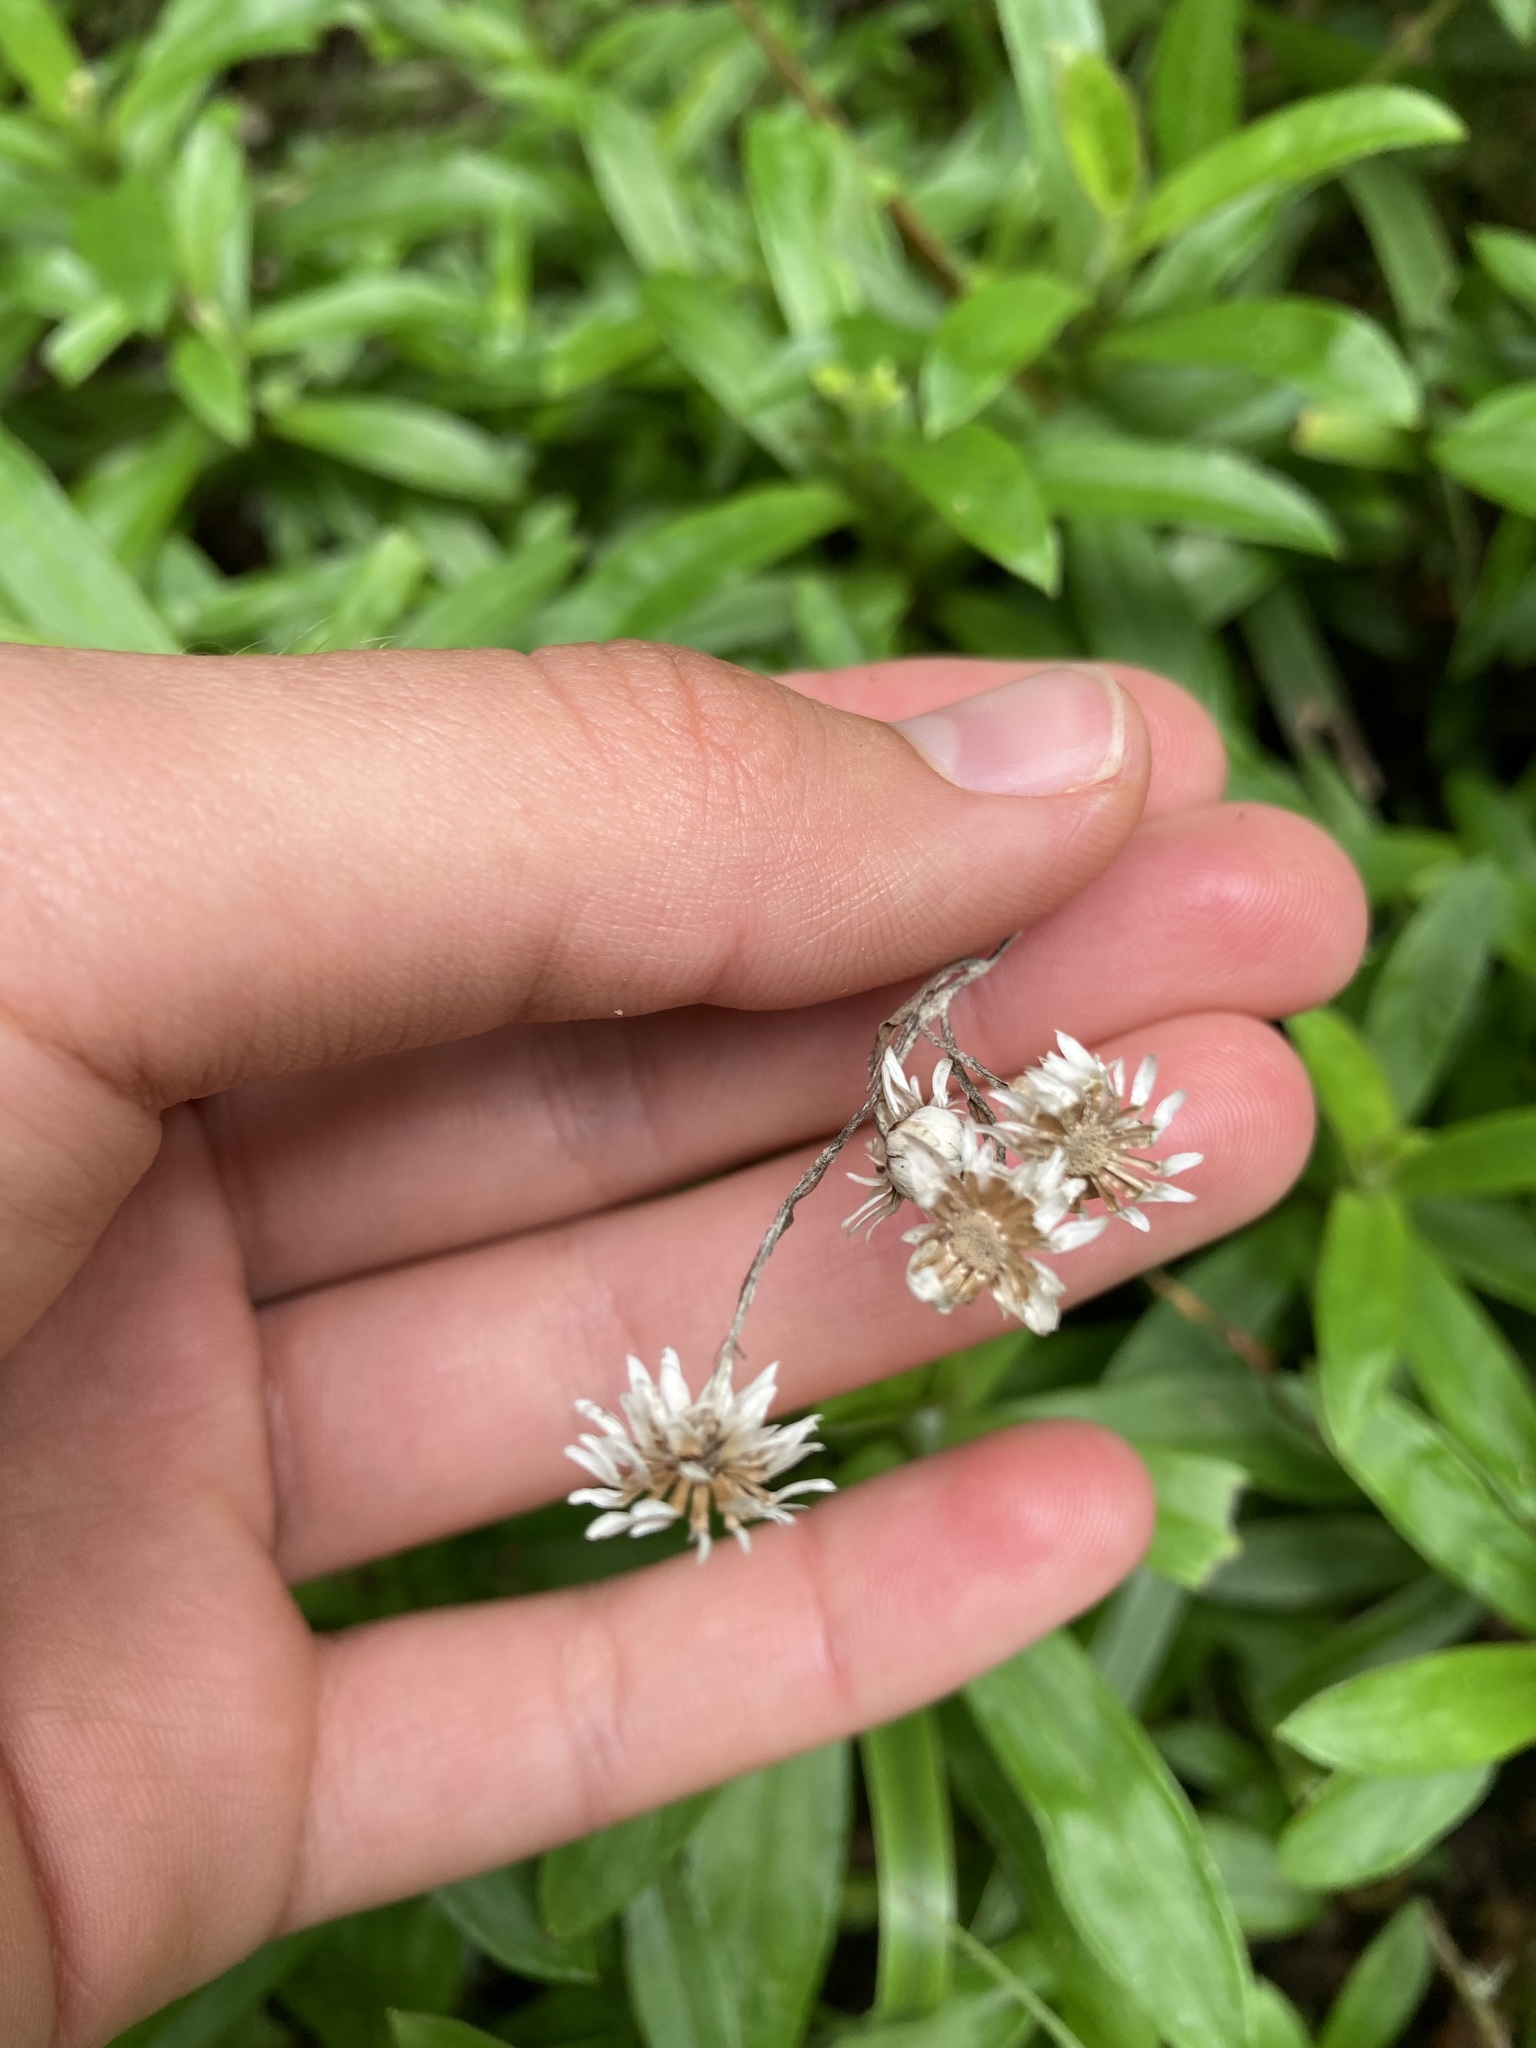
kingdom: Plantae
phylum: Tracheophyta
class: Magnoliopsida
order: Asterales
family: Asteraceae
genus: Anaphalioides
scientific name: Anaphalioides trinervis
